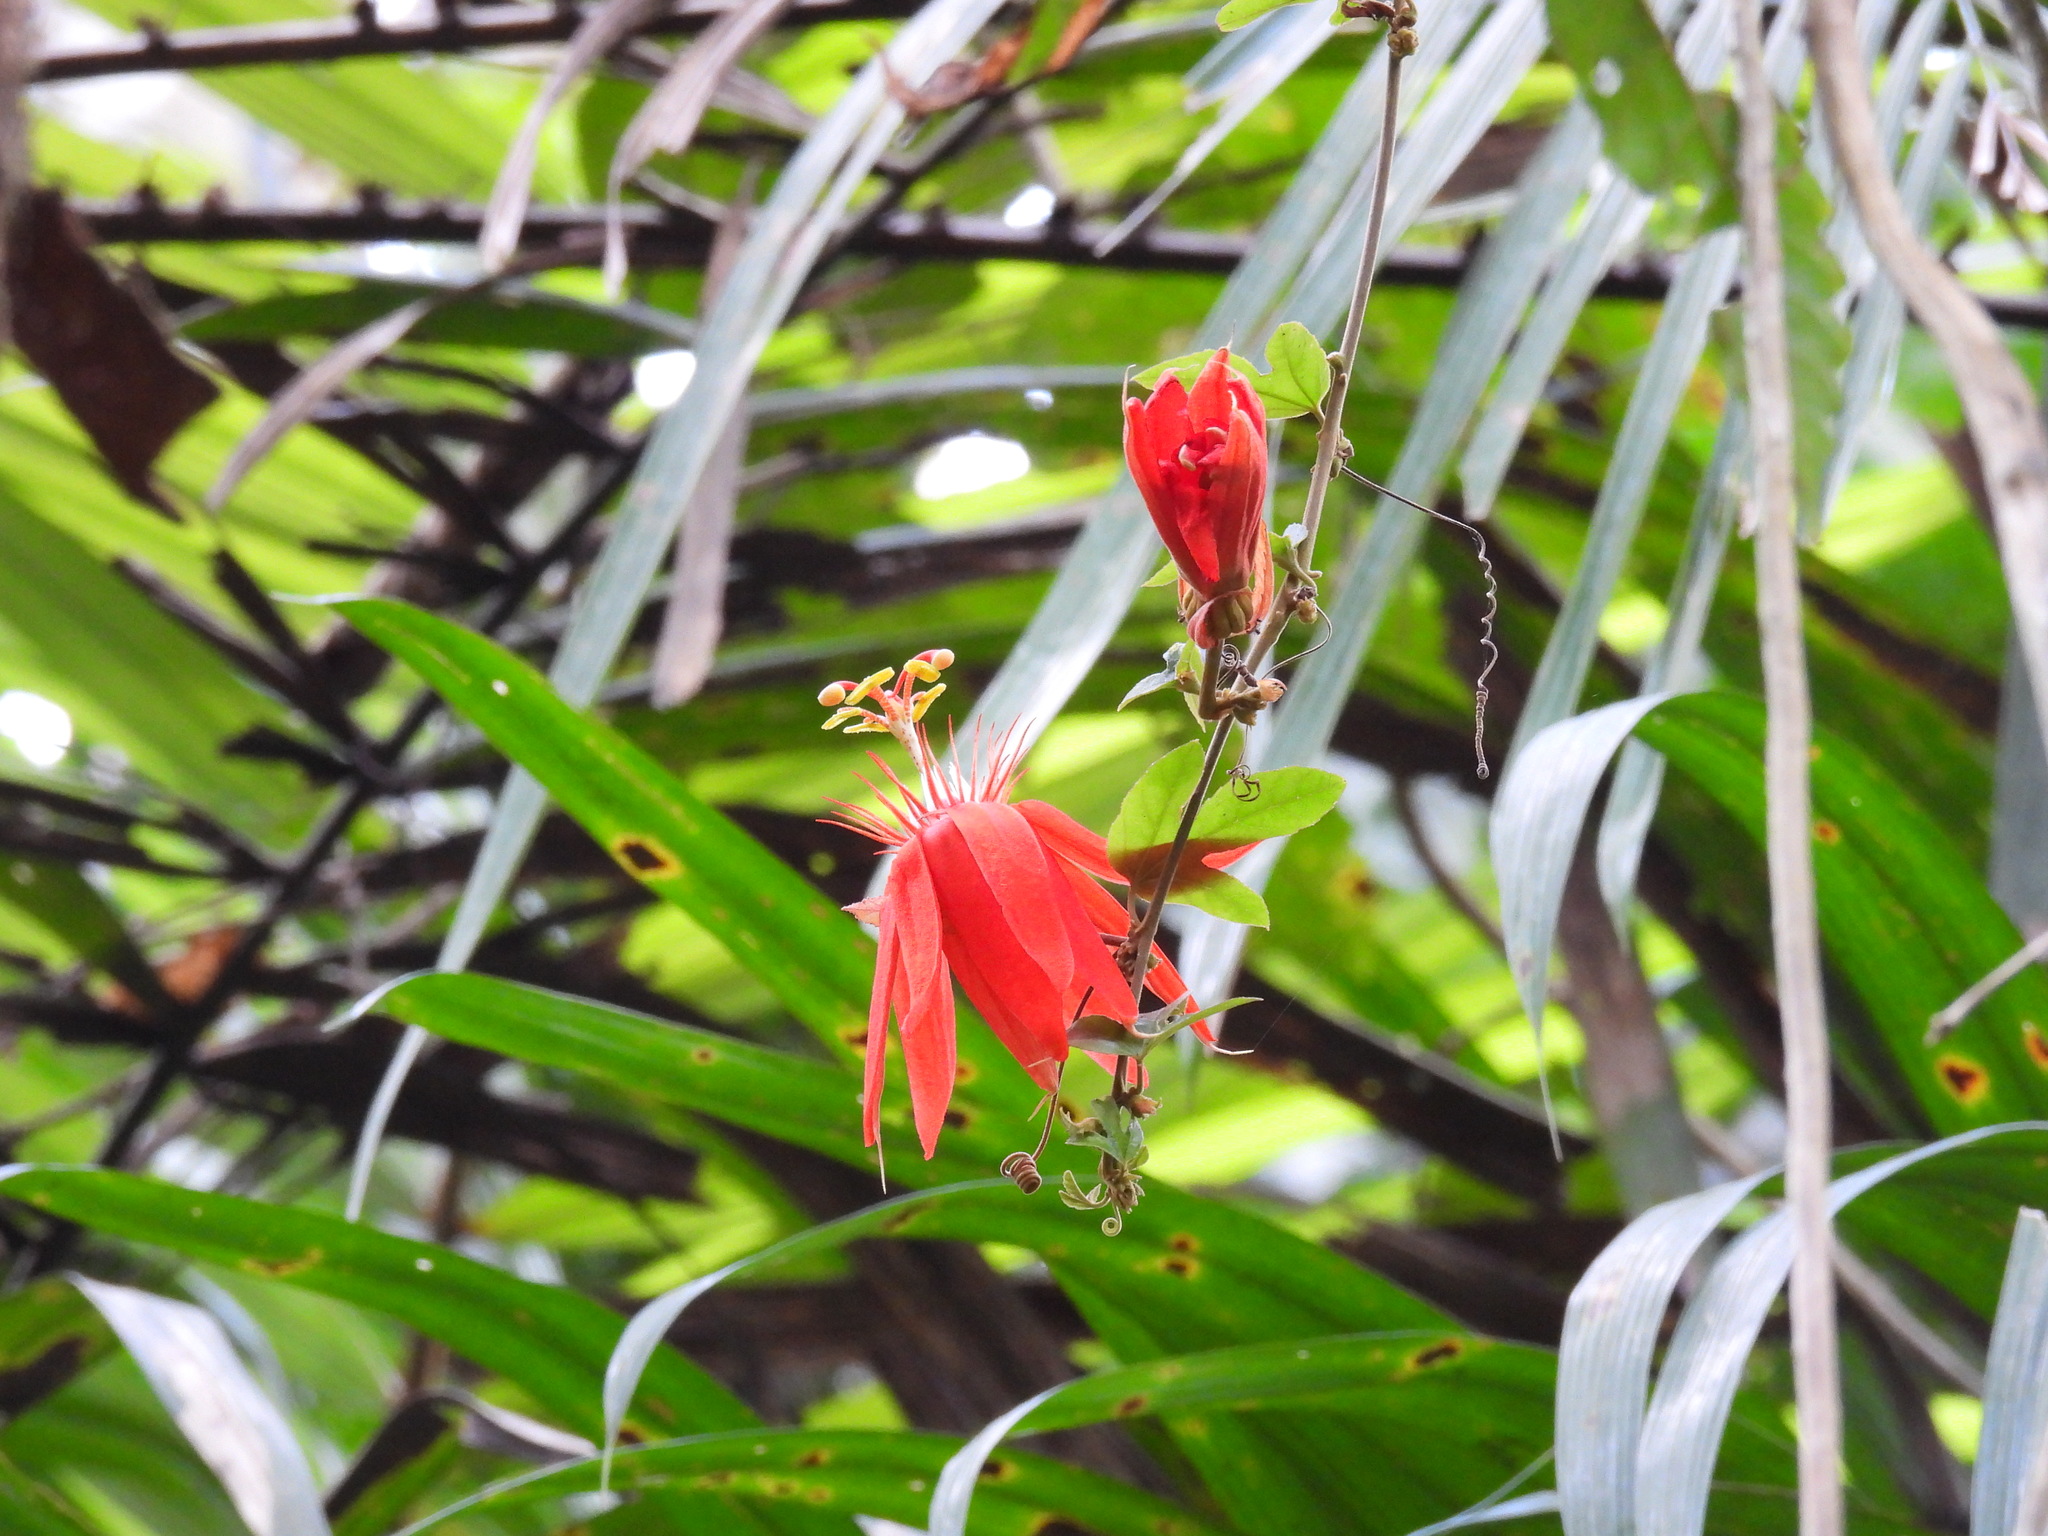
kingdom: Plantae
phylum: Tracheophyta
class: Magnoliopsida
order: Malpighiales
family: Passifloraceae
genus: Passiflora
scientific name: Passiflora vitifolia
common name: Perfumed passionflower
